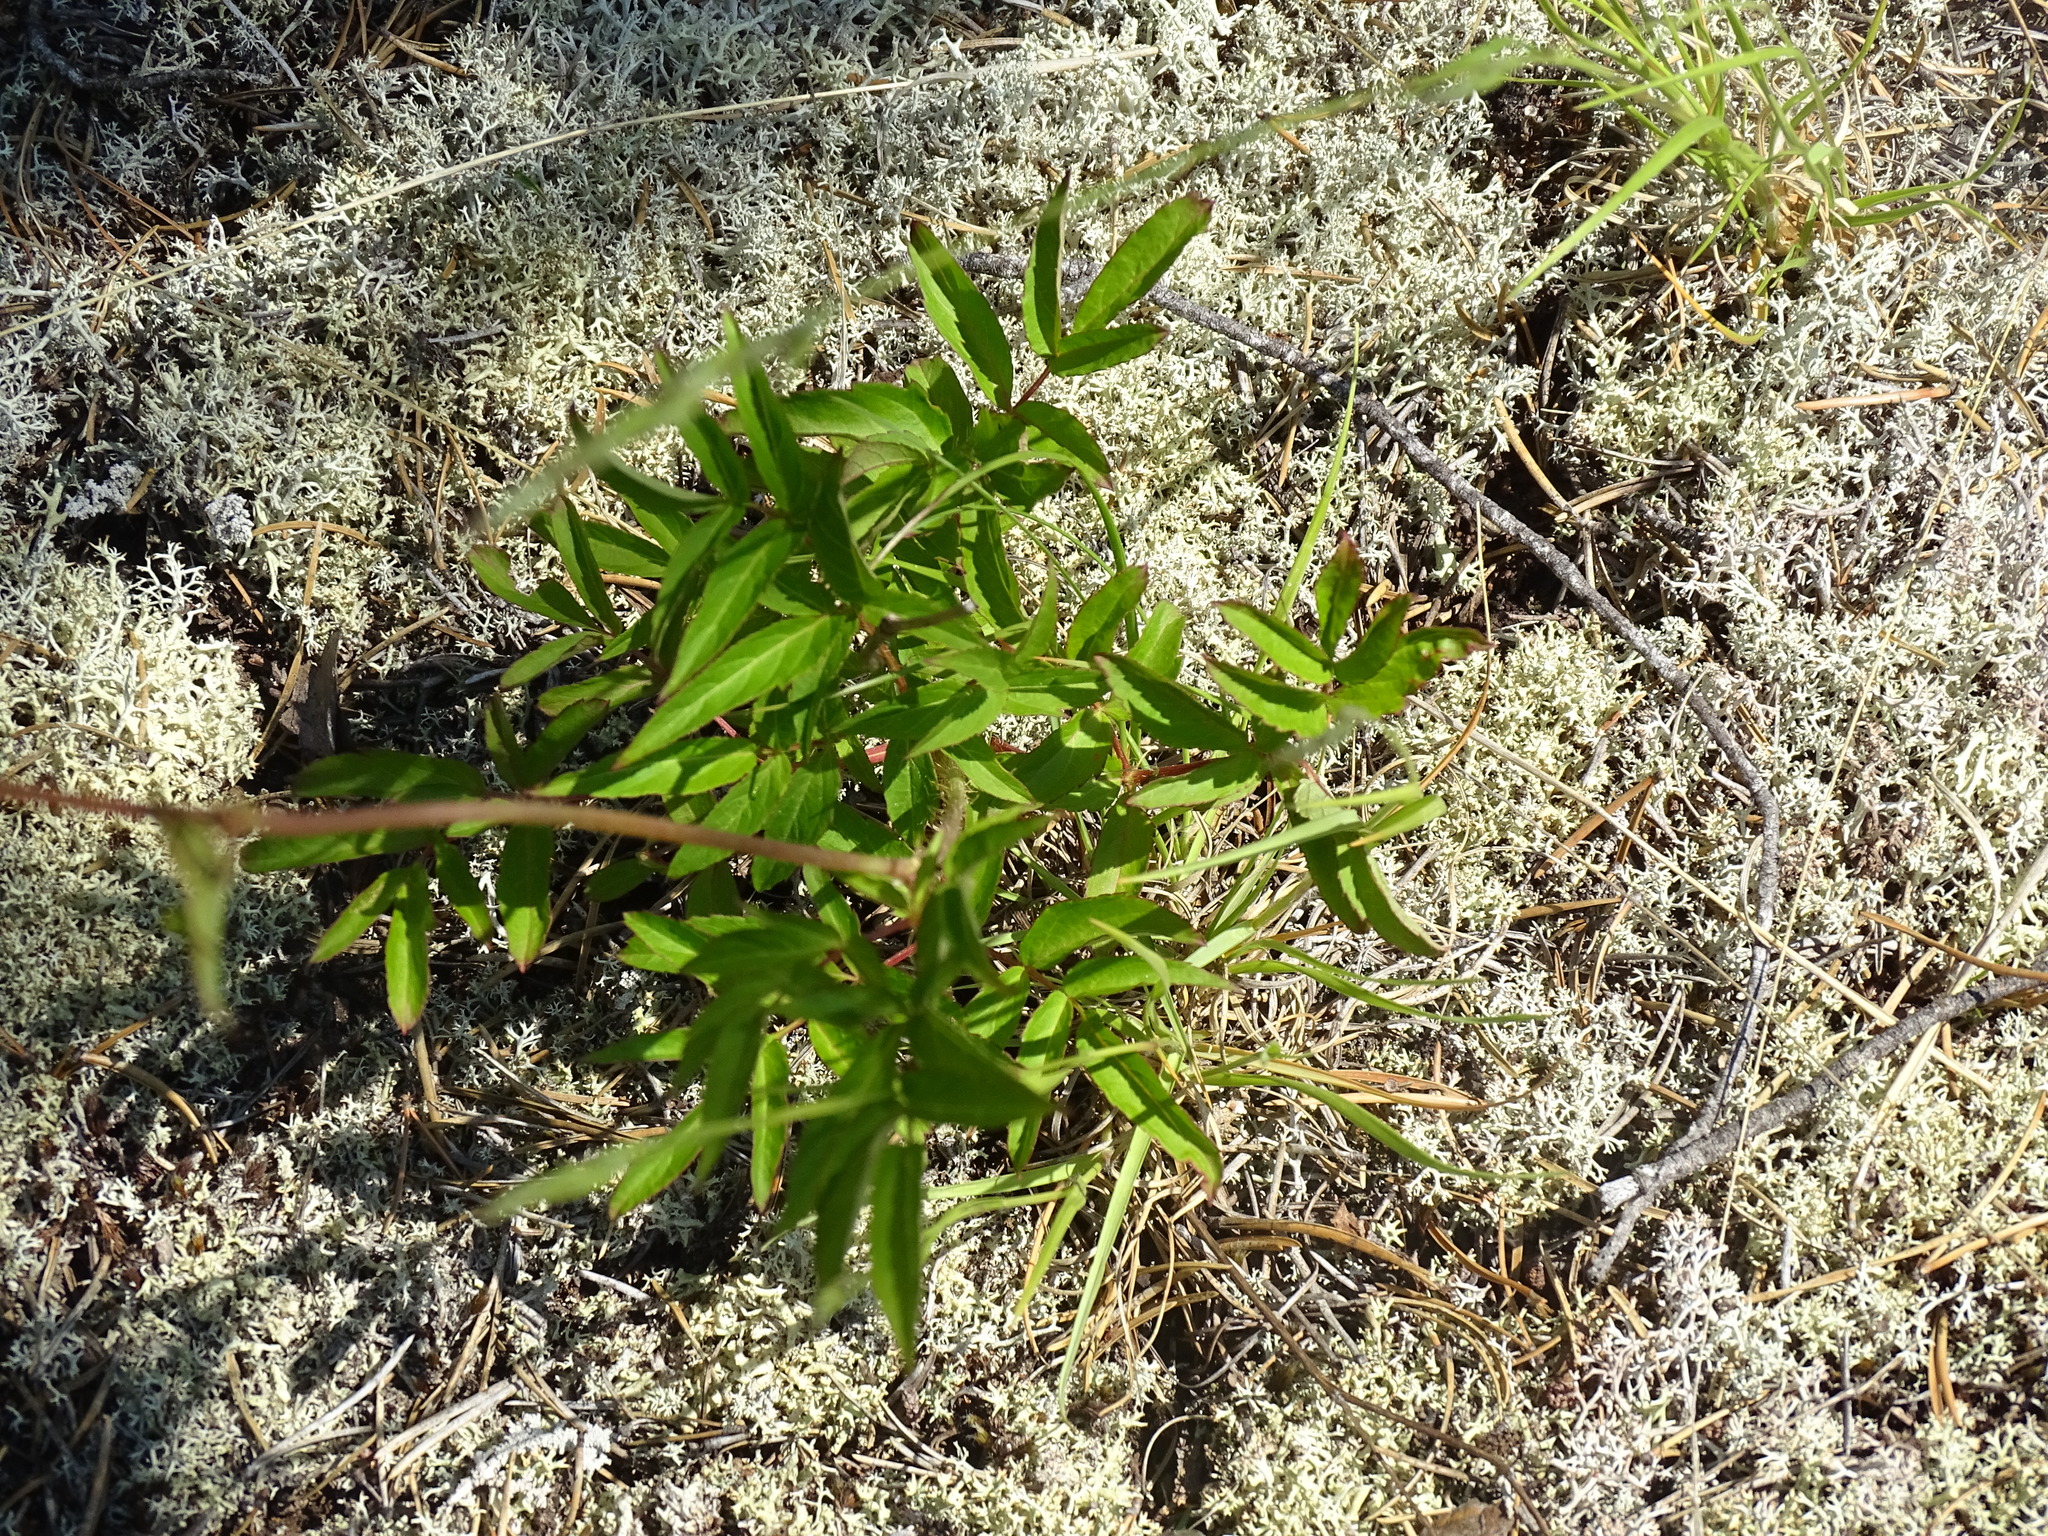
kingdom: Plantae
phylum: Tracheophyta
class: Magnoliopsida
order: Apiales
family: Araliaceae
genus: Aralia
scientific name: Aralia hispida
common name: Bristly sarsaparilla
